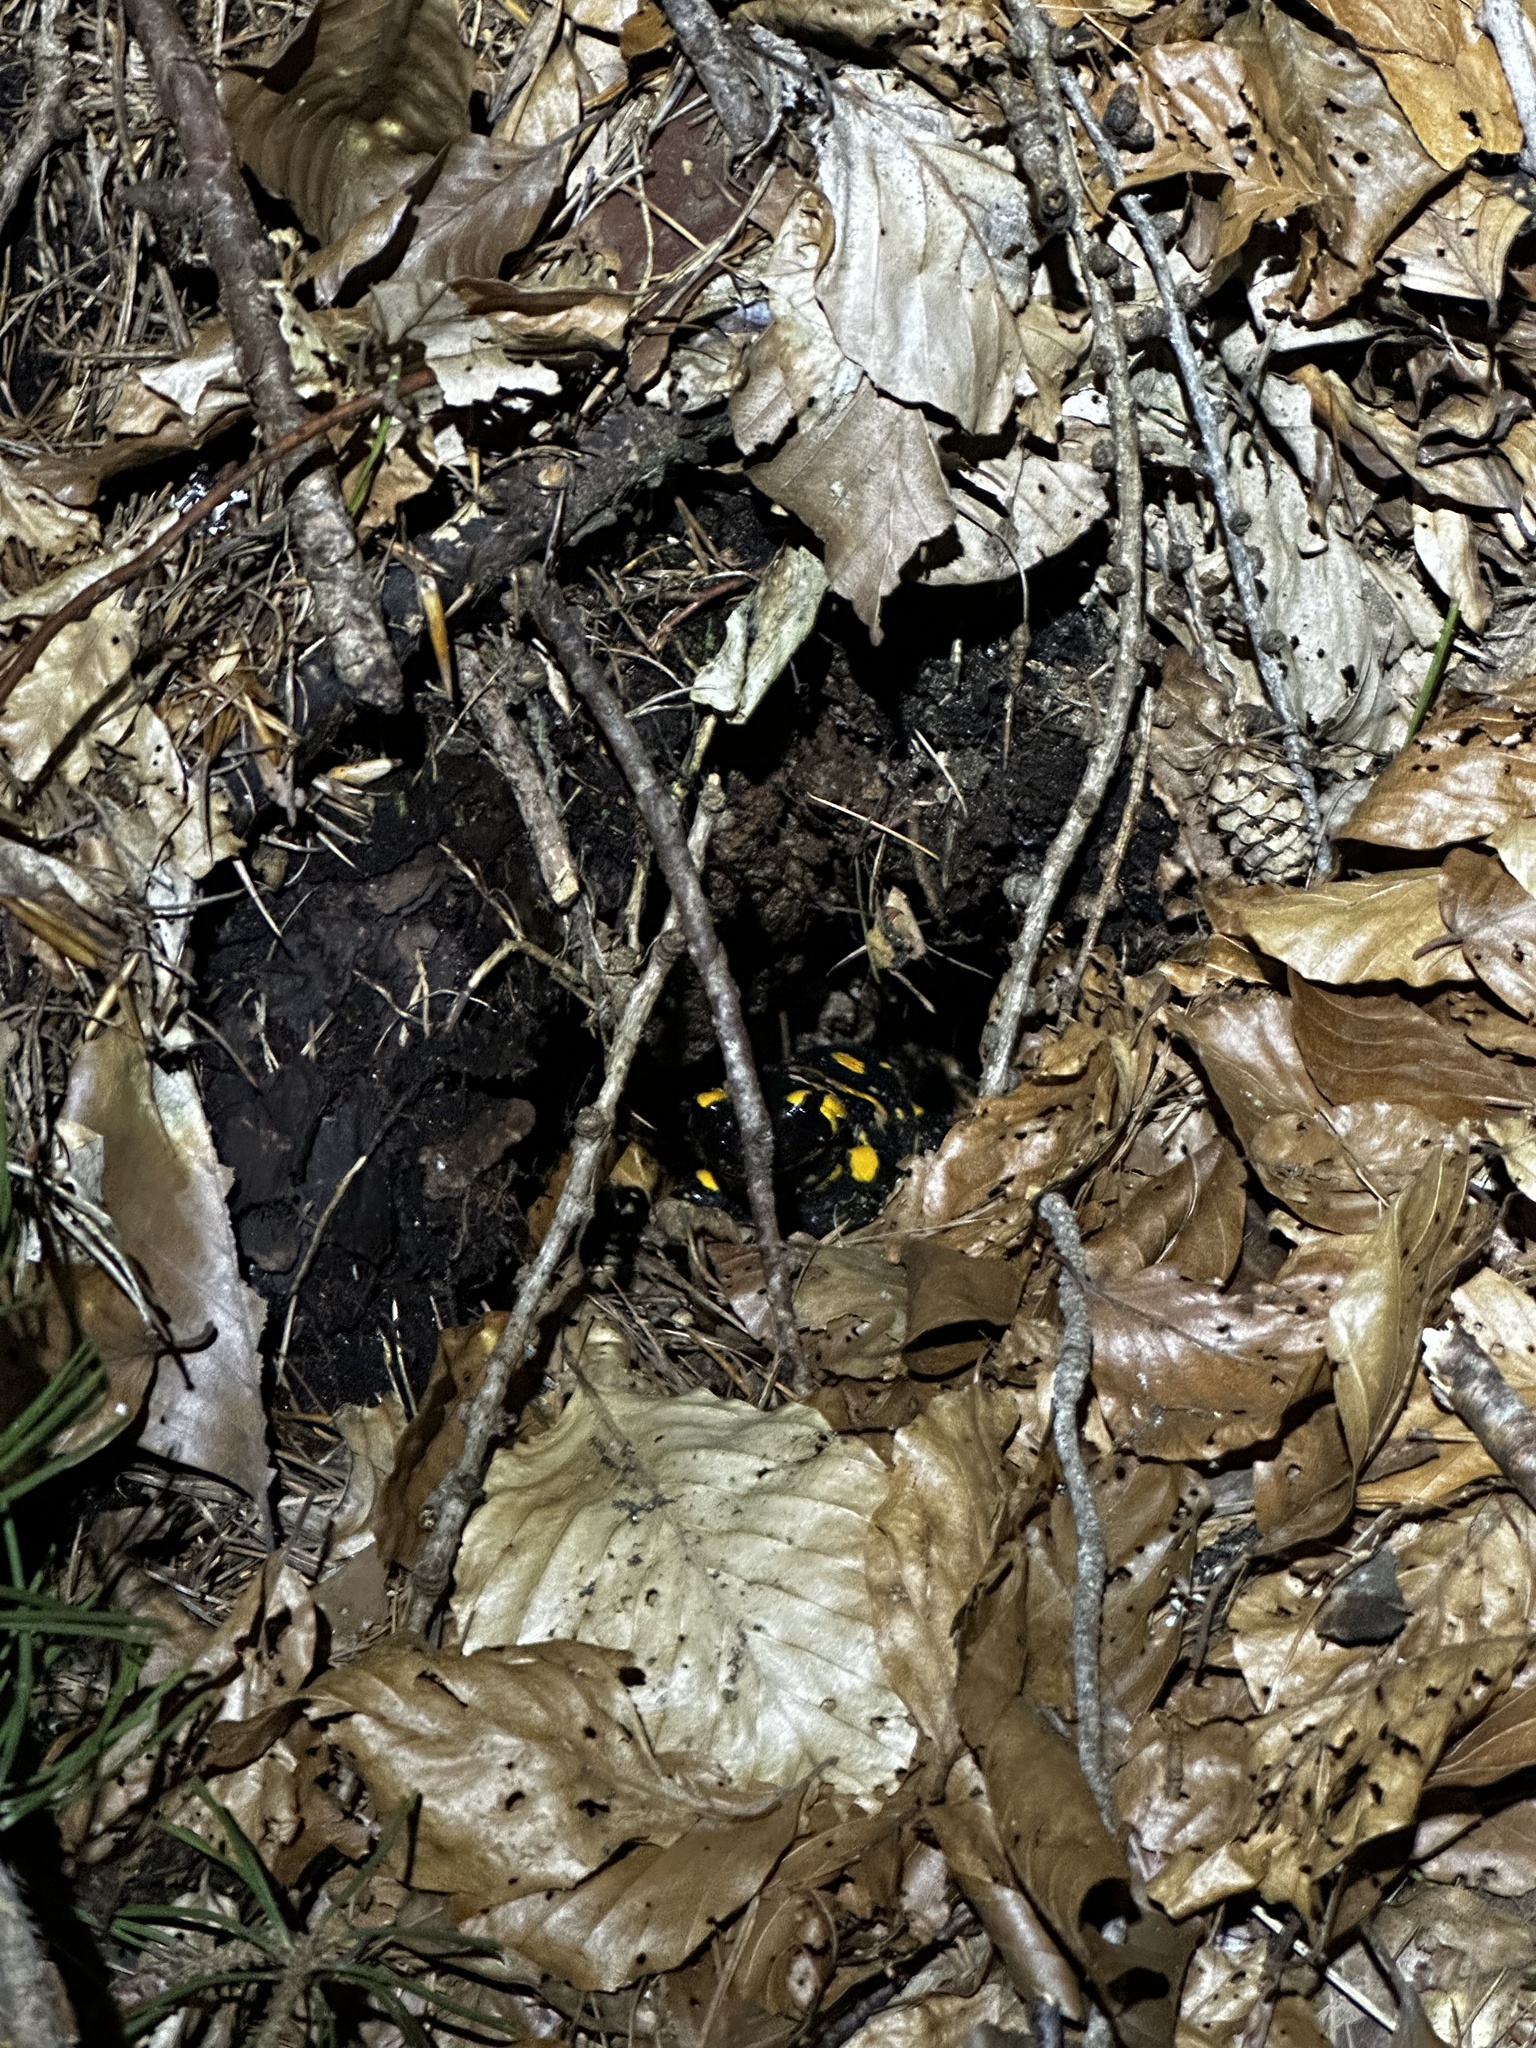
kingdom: Animalia
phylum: Chordata
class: Amphibia
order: Caudata
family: Salamandridae
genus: Salamandra
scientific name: Salamandra salamandra
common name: Fire salamander
